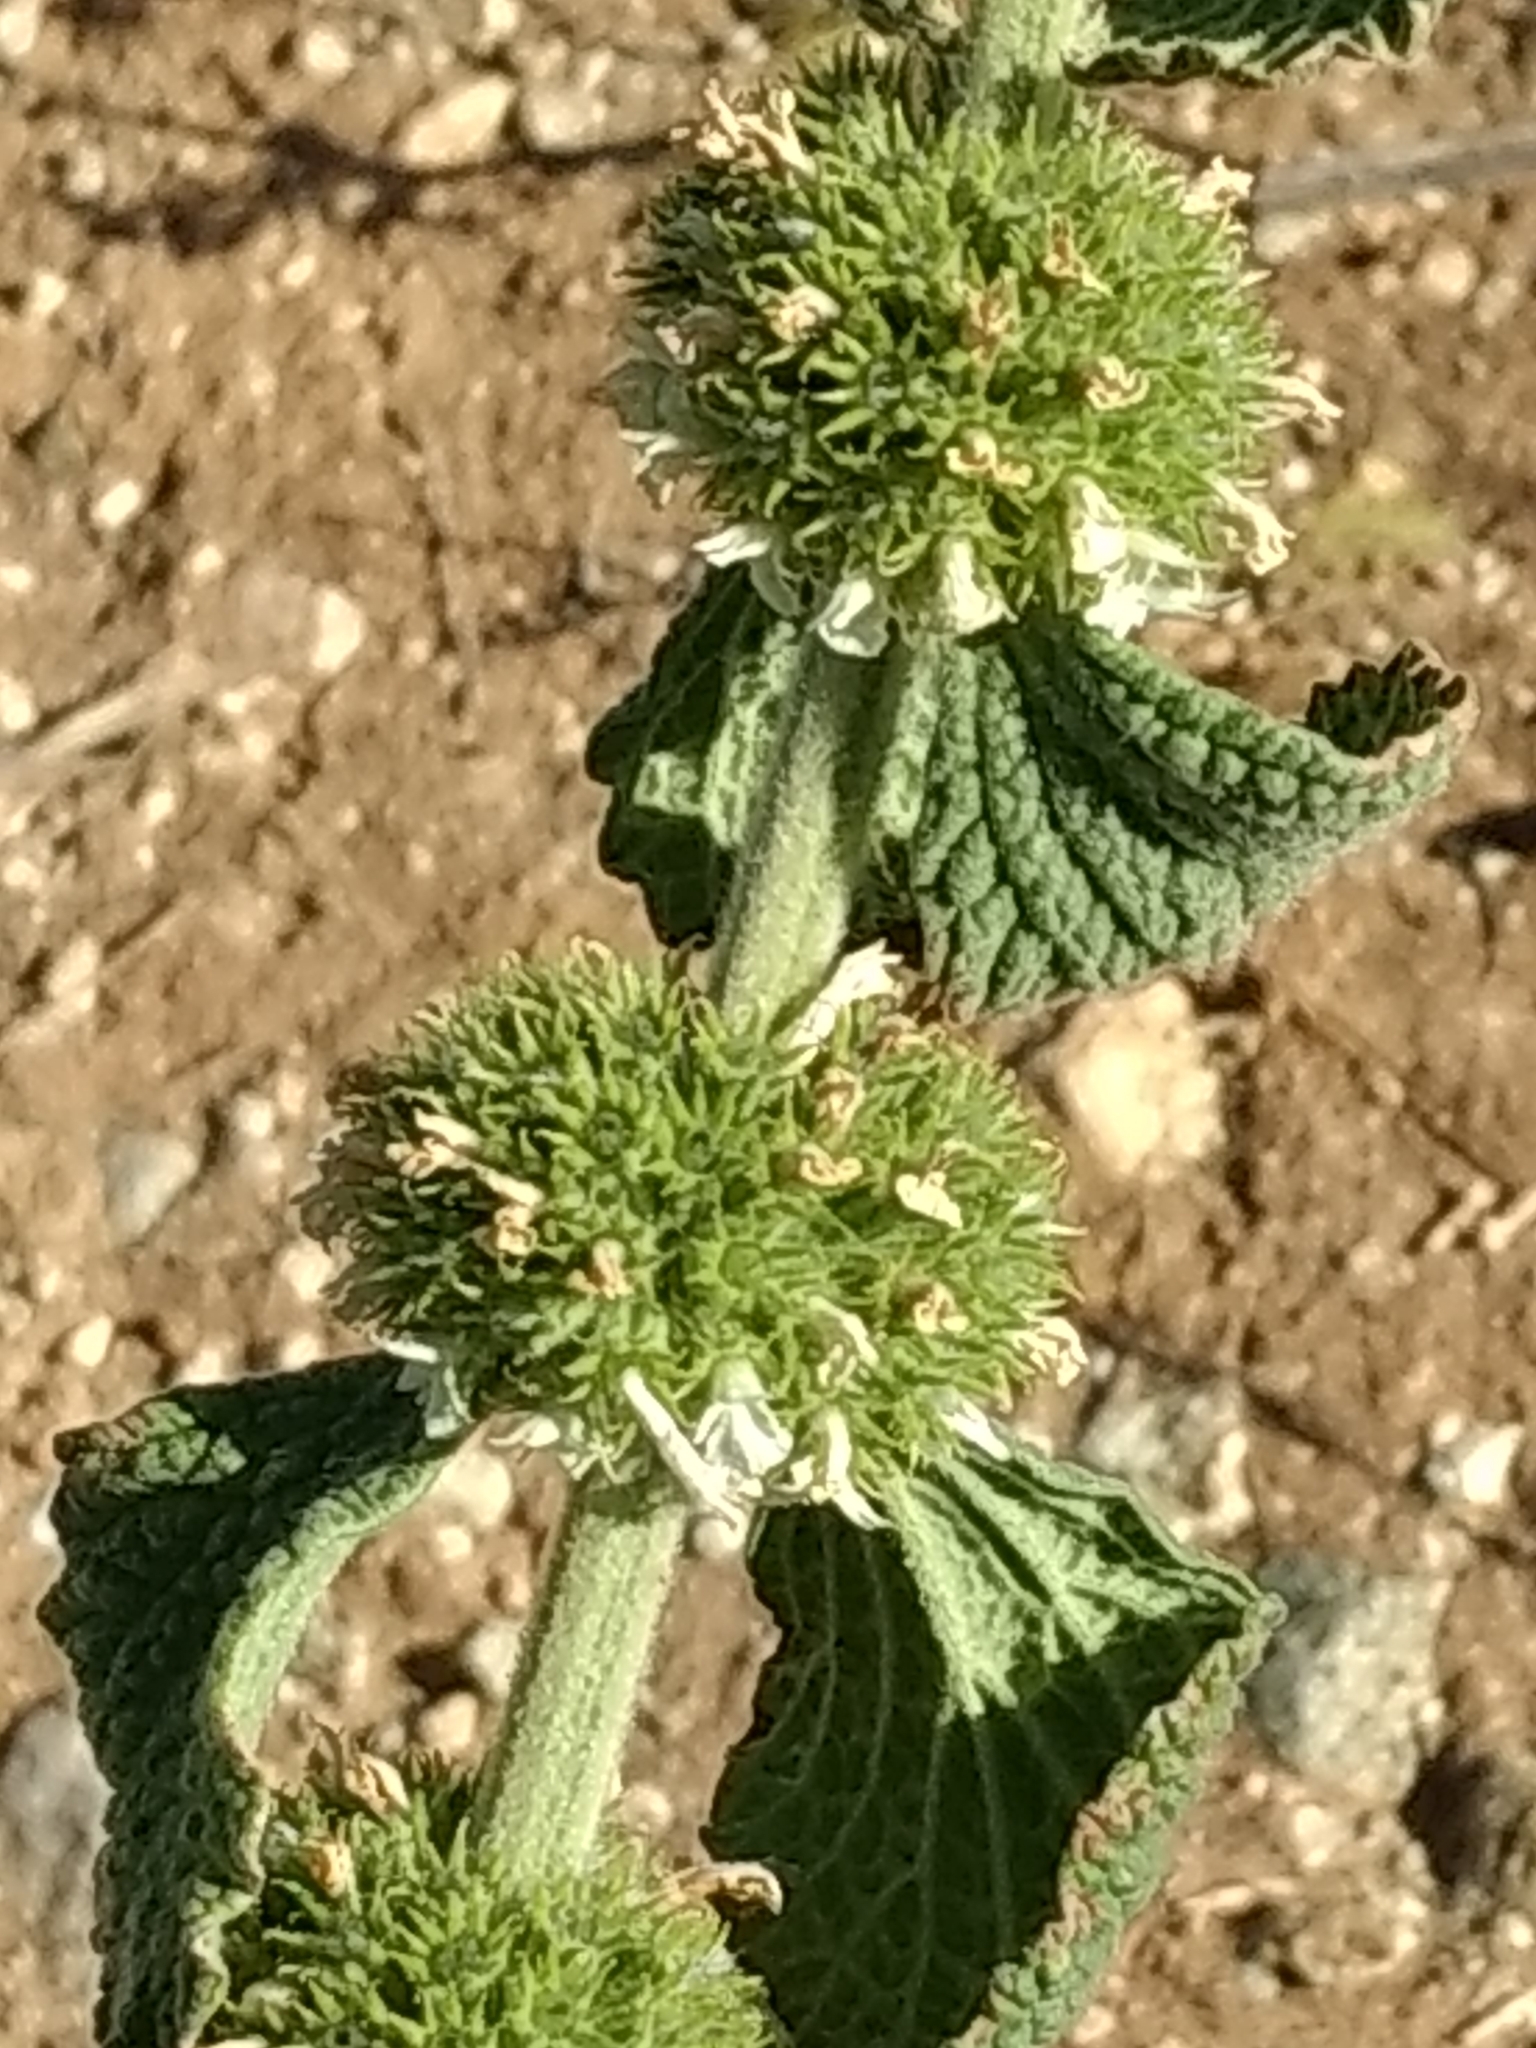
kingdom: Plantae
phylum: Tracheophyta
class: Magnoliopsida
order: Lamiales
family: Lamiaceae
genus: Marrubium
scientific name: Marrubium vulgare
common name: Horehound
